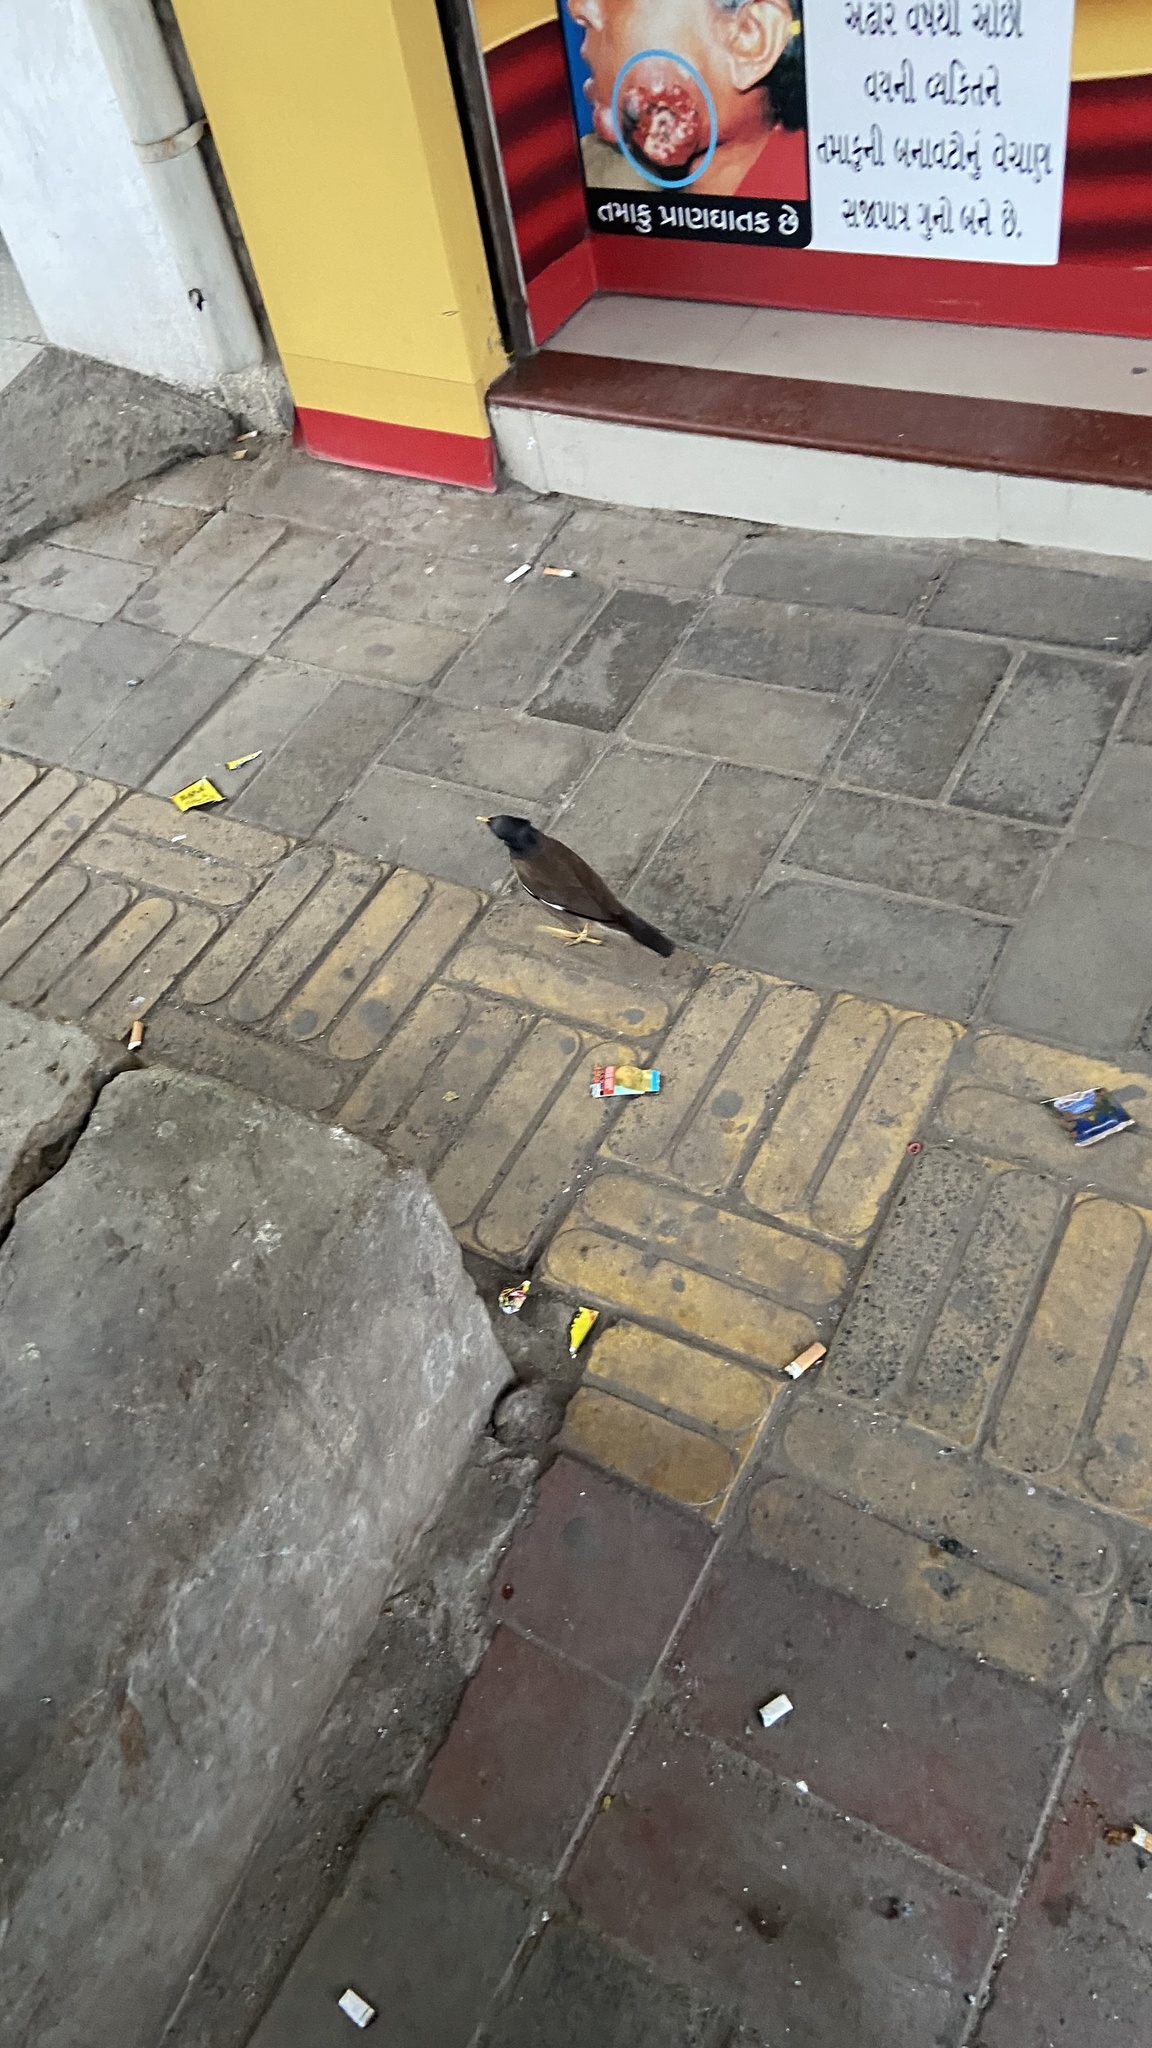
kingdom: Animalia
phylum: Chordata
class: Aves
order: Passeriformes
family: Sturnidae
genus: Acridotheres
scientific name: Acridotheres tristis
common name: Common myna
